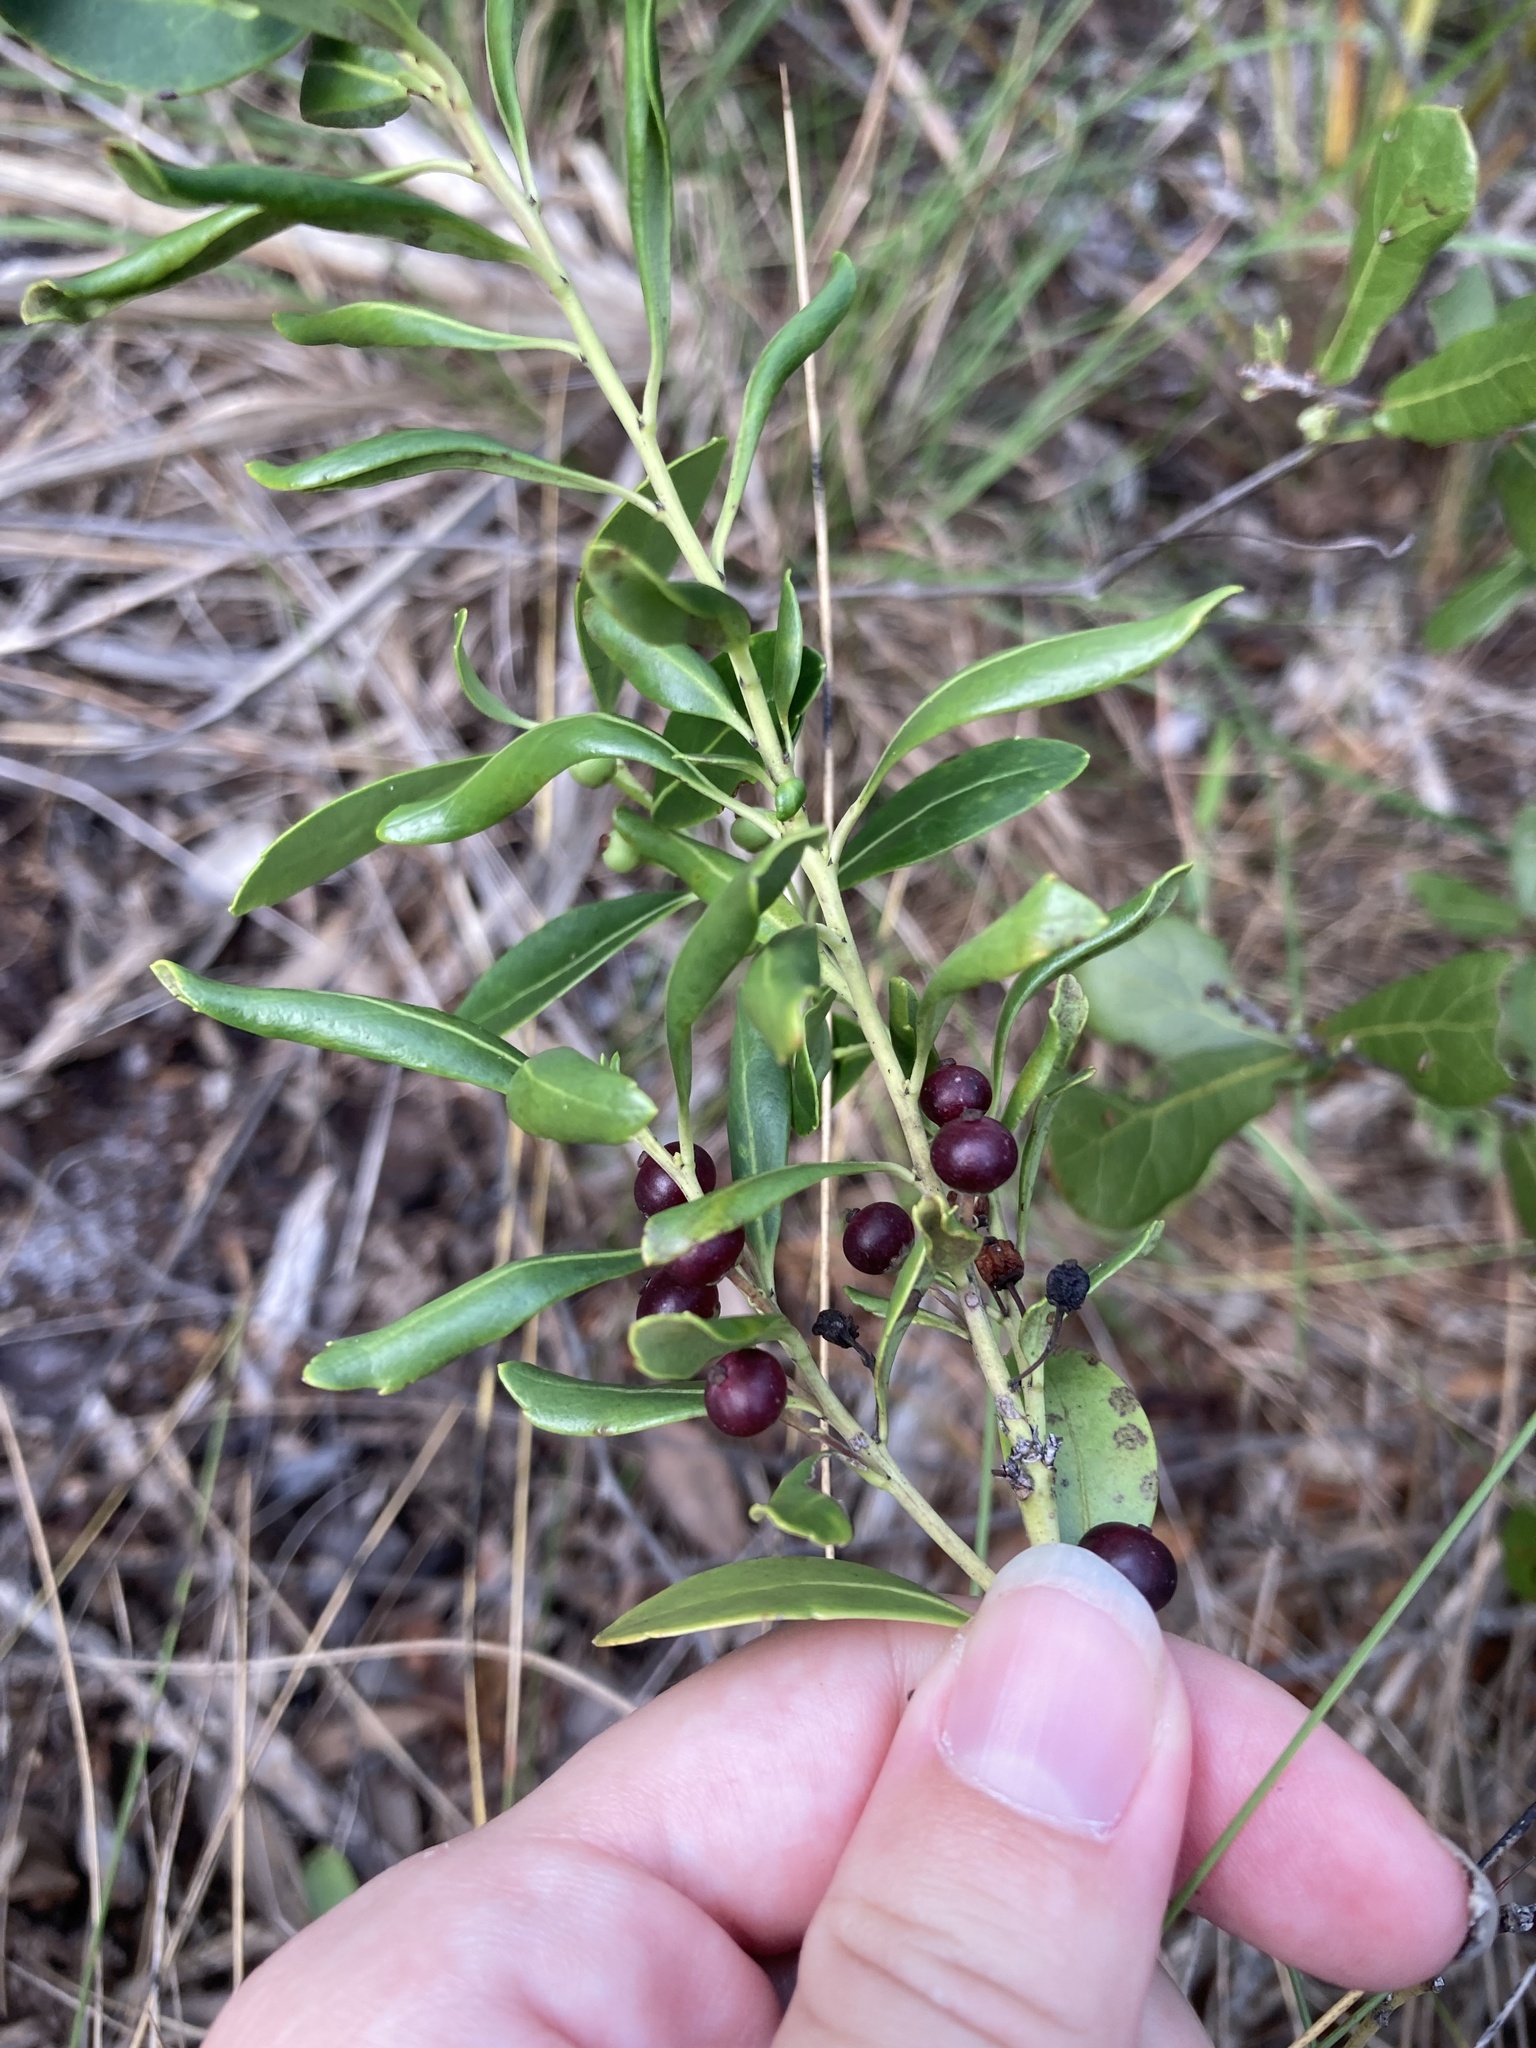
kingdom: Plantae
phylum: Tracheophyta
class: Magnoliopsida
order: Aquifoliales
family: Aquifoliaceae
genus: Ilex
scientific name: Ilex glabra
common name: Bitter gallberry
